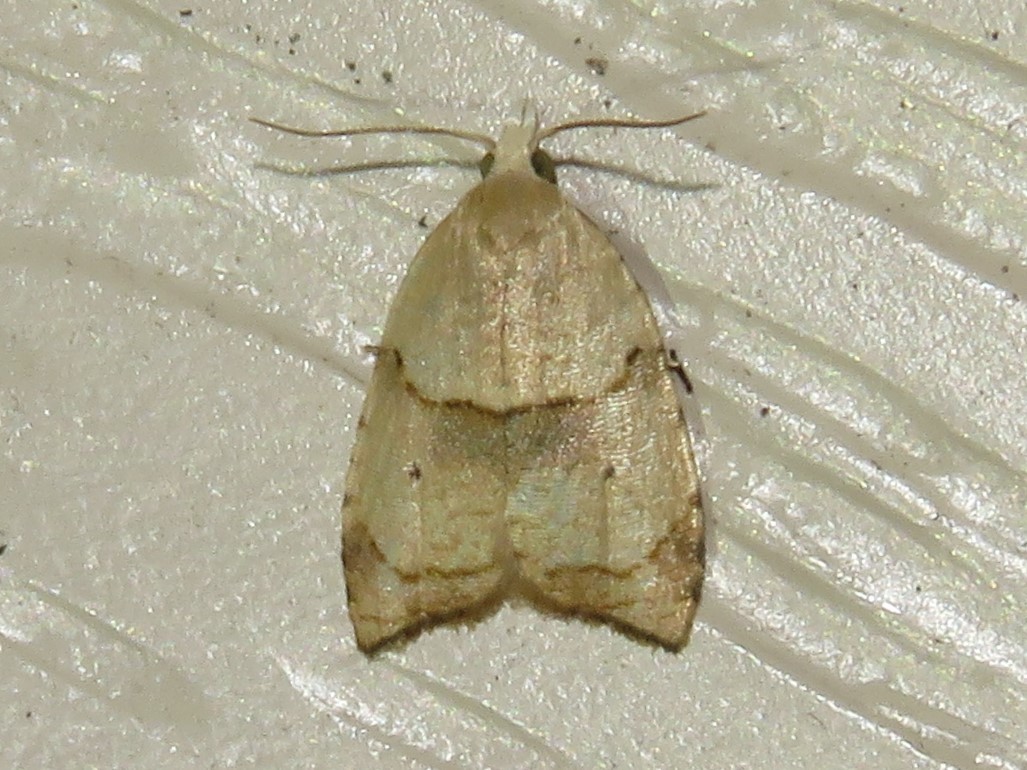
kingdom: Animalia
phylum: Arthropoda
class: Insecta
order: Lepidoptera
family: Tortricidae
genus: Coelostathma
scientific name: Coelostathma discopunctana
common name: Batman moth
